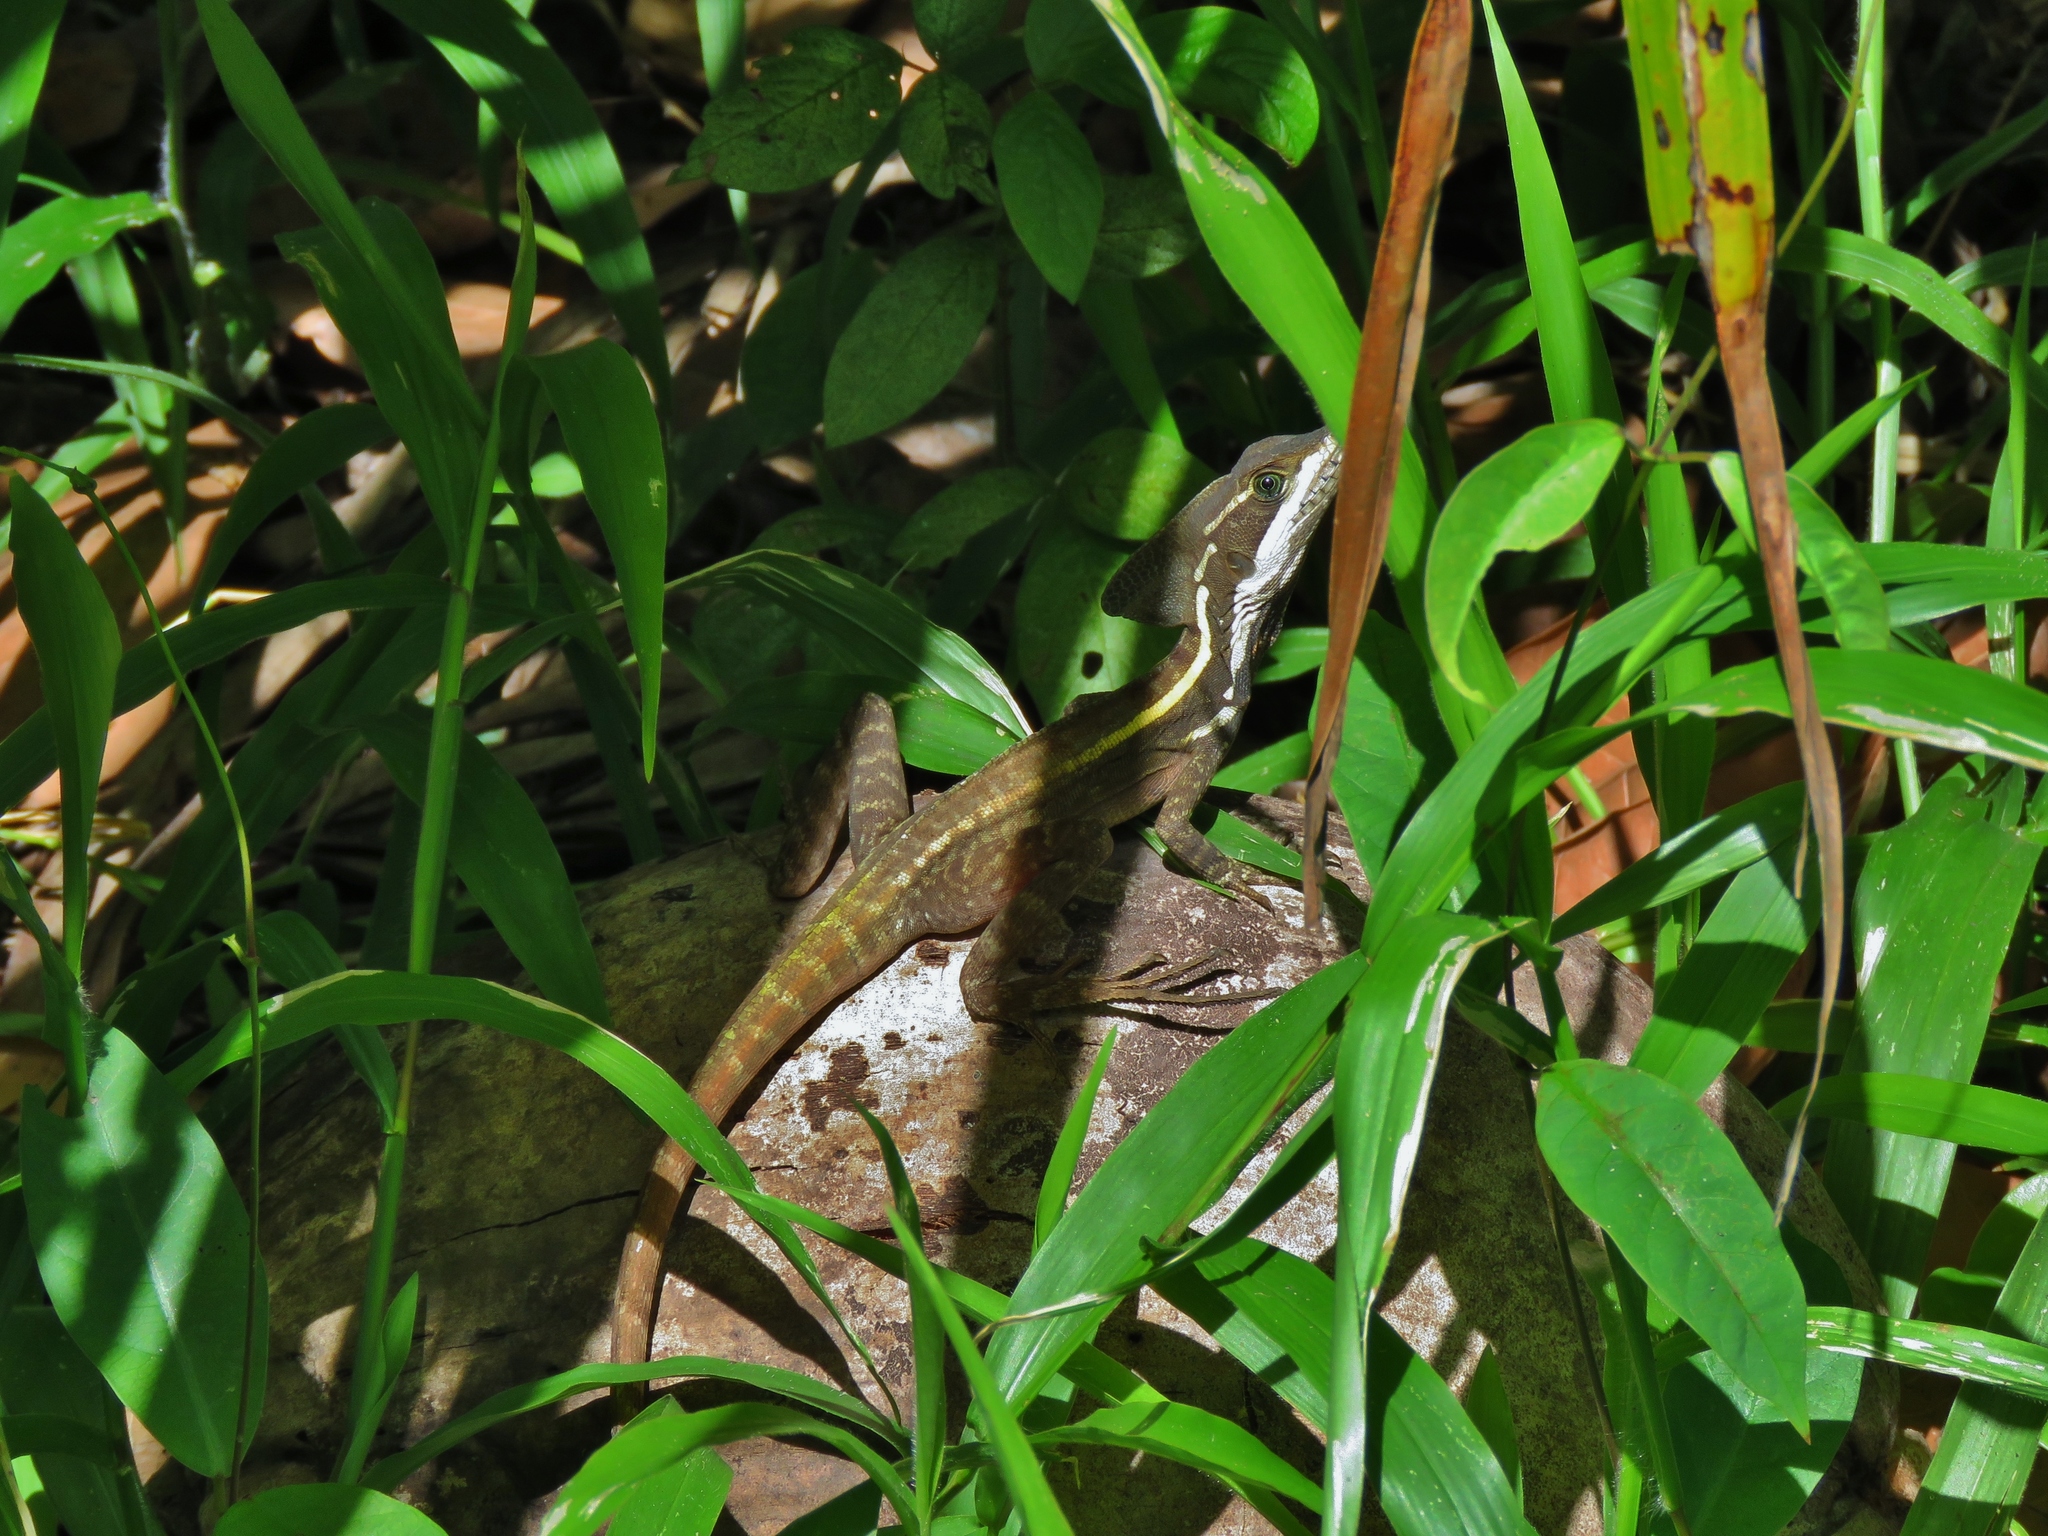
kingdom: Animalia
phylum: Chordata
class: Squamata
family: Corytophanidae
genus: Basiliscus
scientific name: Basiliscus vittatus
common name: Brown basilisk
